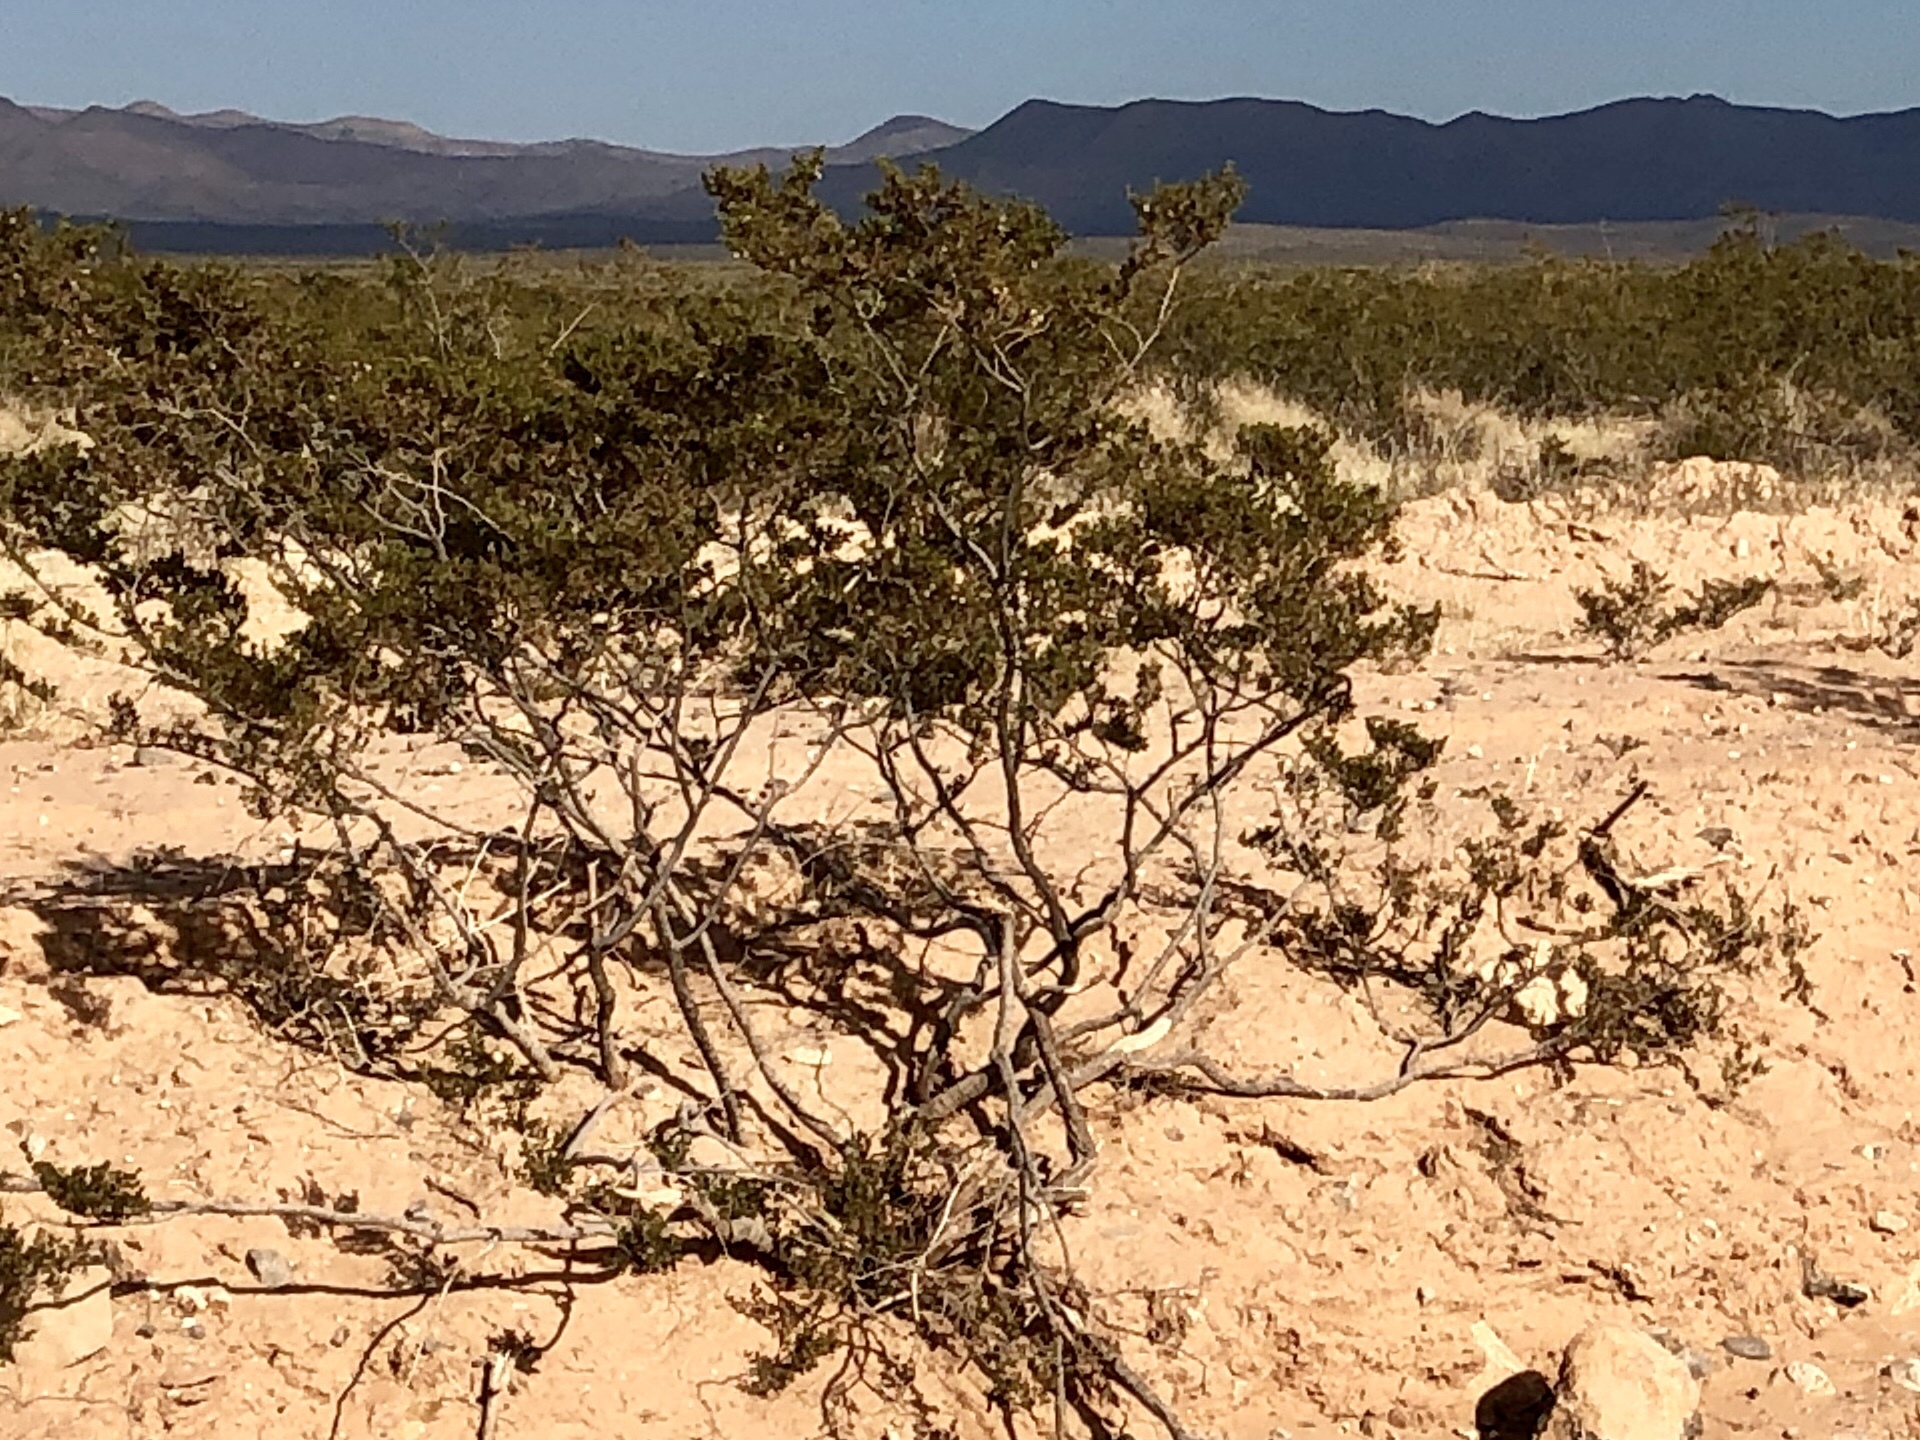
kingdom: Plantae
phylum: Tracheophyta
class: Magnoliopsida
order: Zygophyllales
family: Zygophyllaceae
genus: Larrea
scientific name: Larrea tridentata
